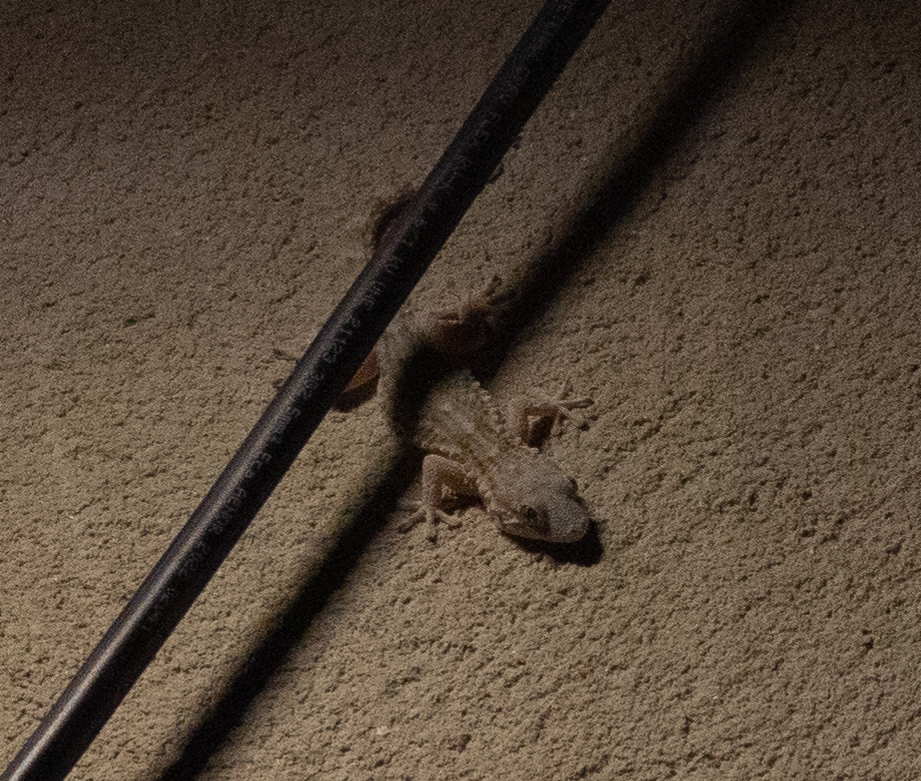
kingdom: Animalia
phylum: Chordata
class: Squamata
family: Phyllodactylidae
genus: Tarentola
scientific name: Tarentola mauritanica
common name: Moorish gecko
